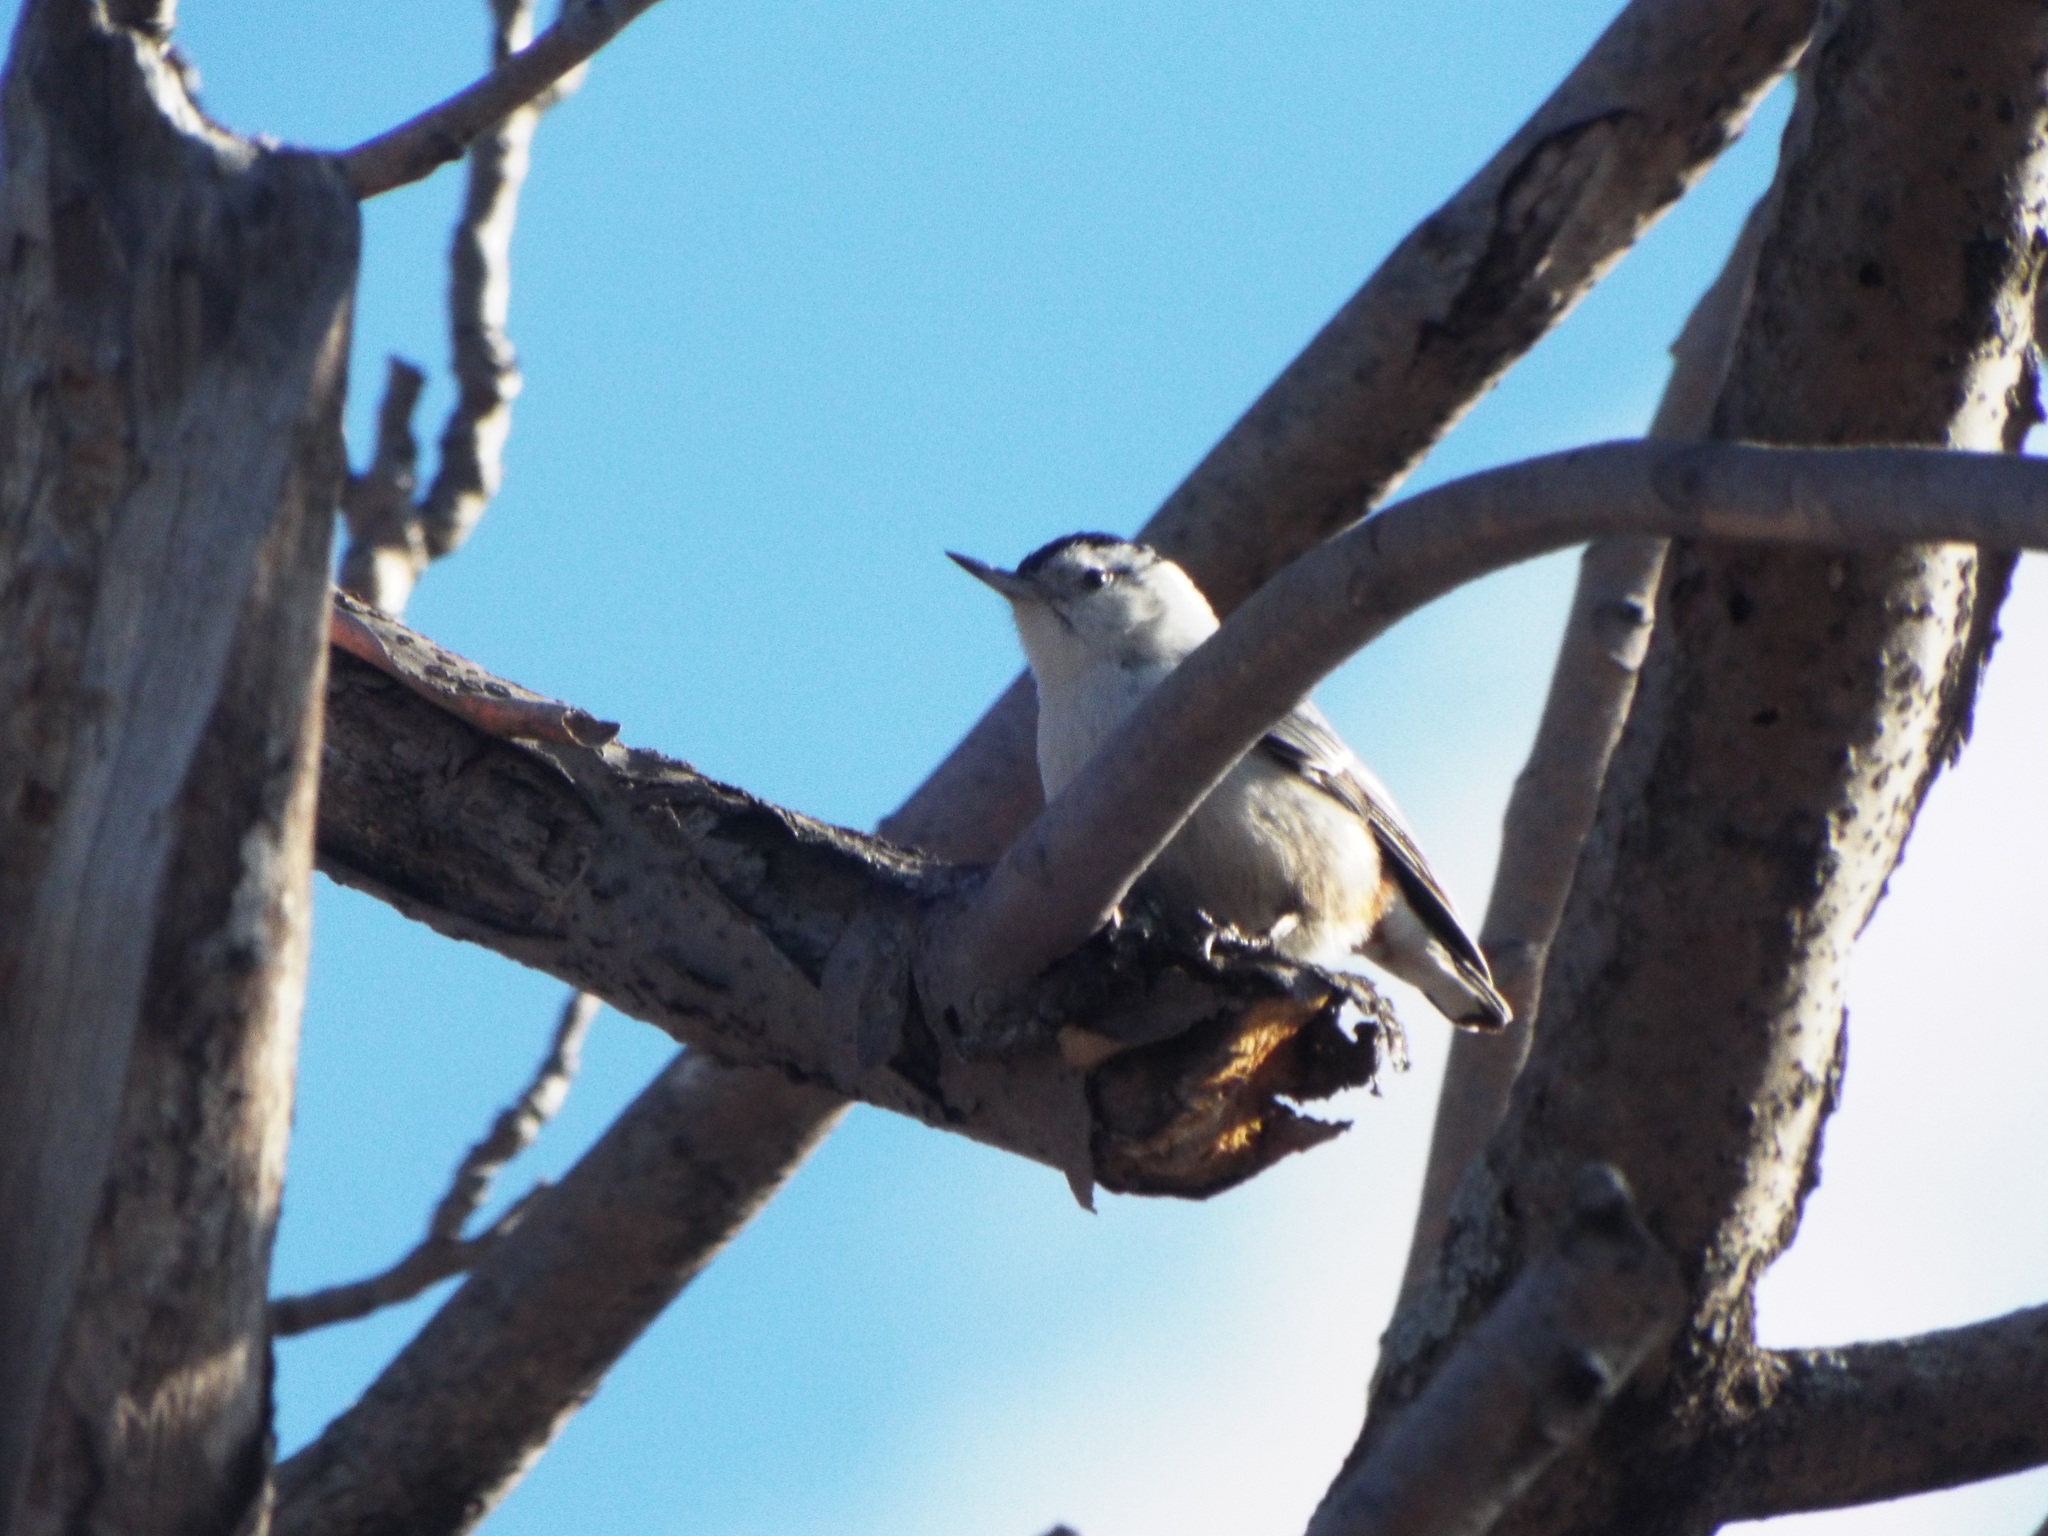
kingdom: Animalia
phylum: Chordata
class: Aves
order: Passeriformes
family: Sittidae
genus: Sitta
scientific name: Sitta carolinensis
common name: White-breasted nuthatch
